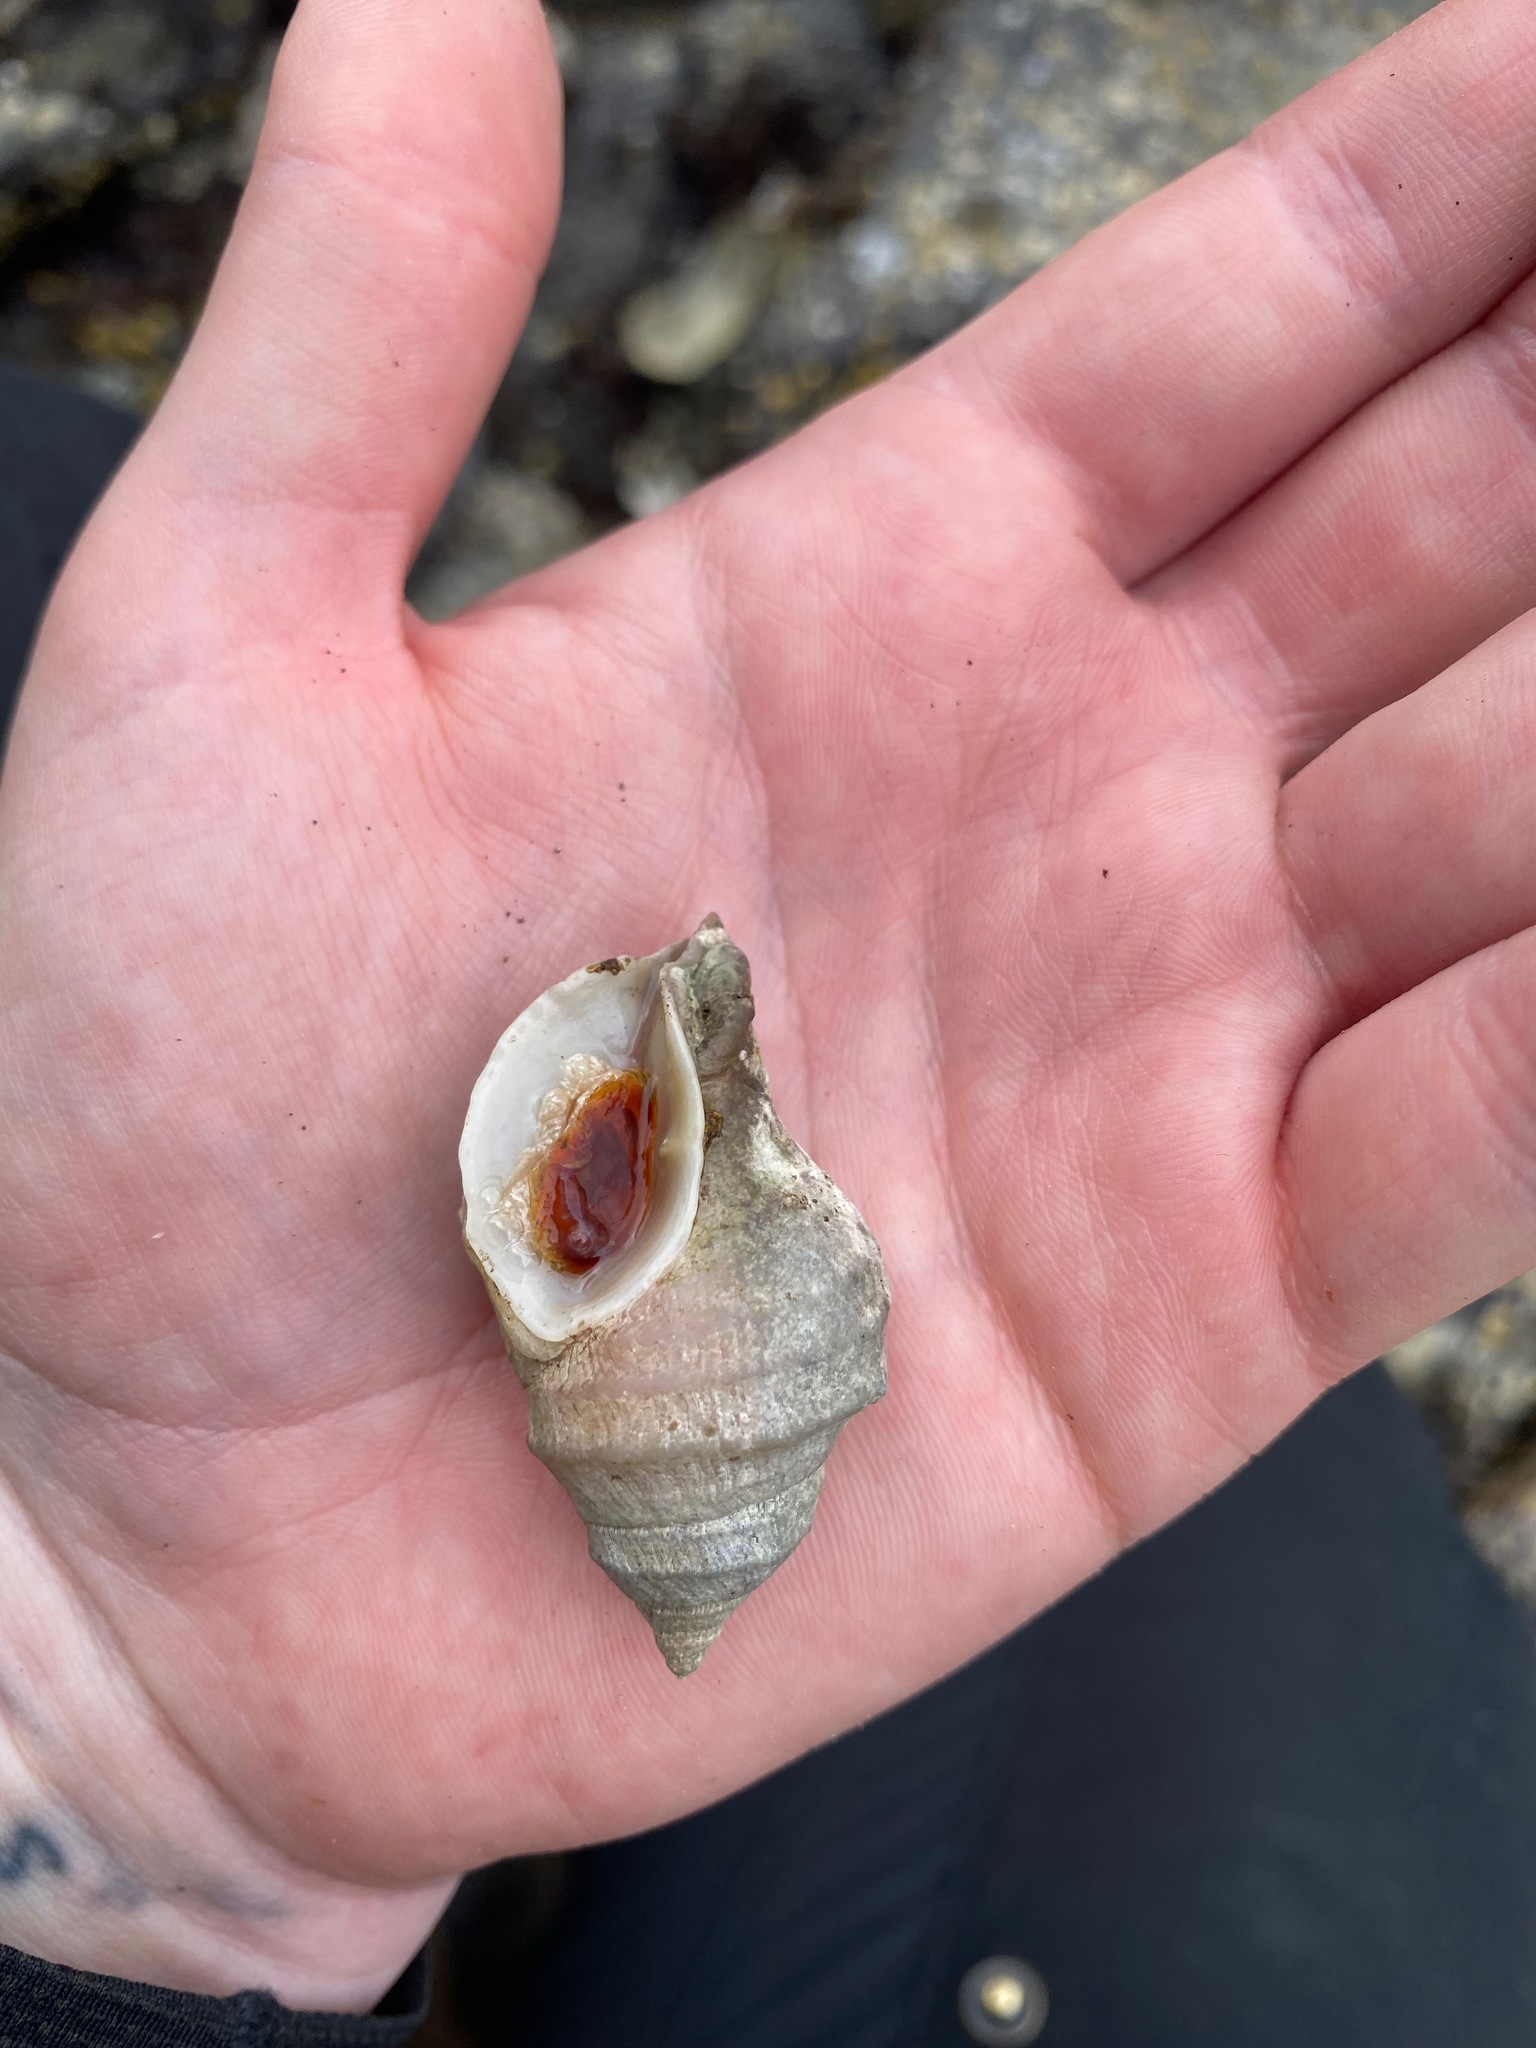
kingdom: Animalia
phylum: Mollusca
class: Gastropoda
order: Neogastropoda
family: Muricidae
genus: Nucella
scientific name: Nucella lamellosa
